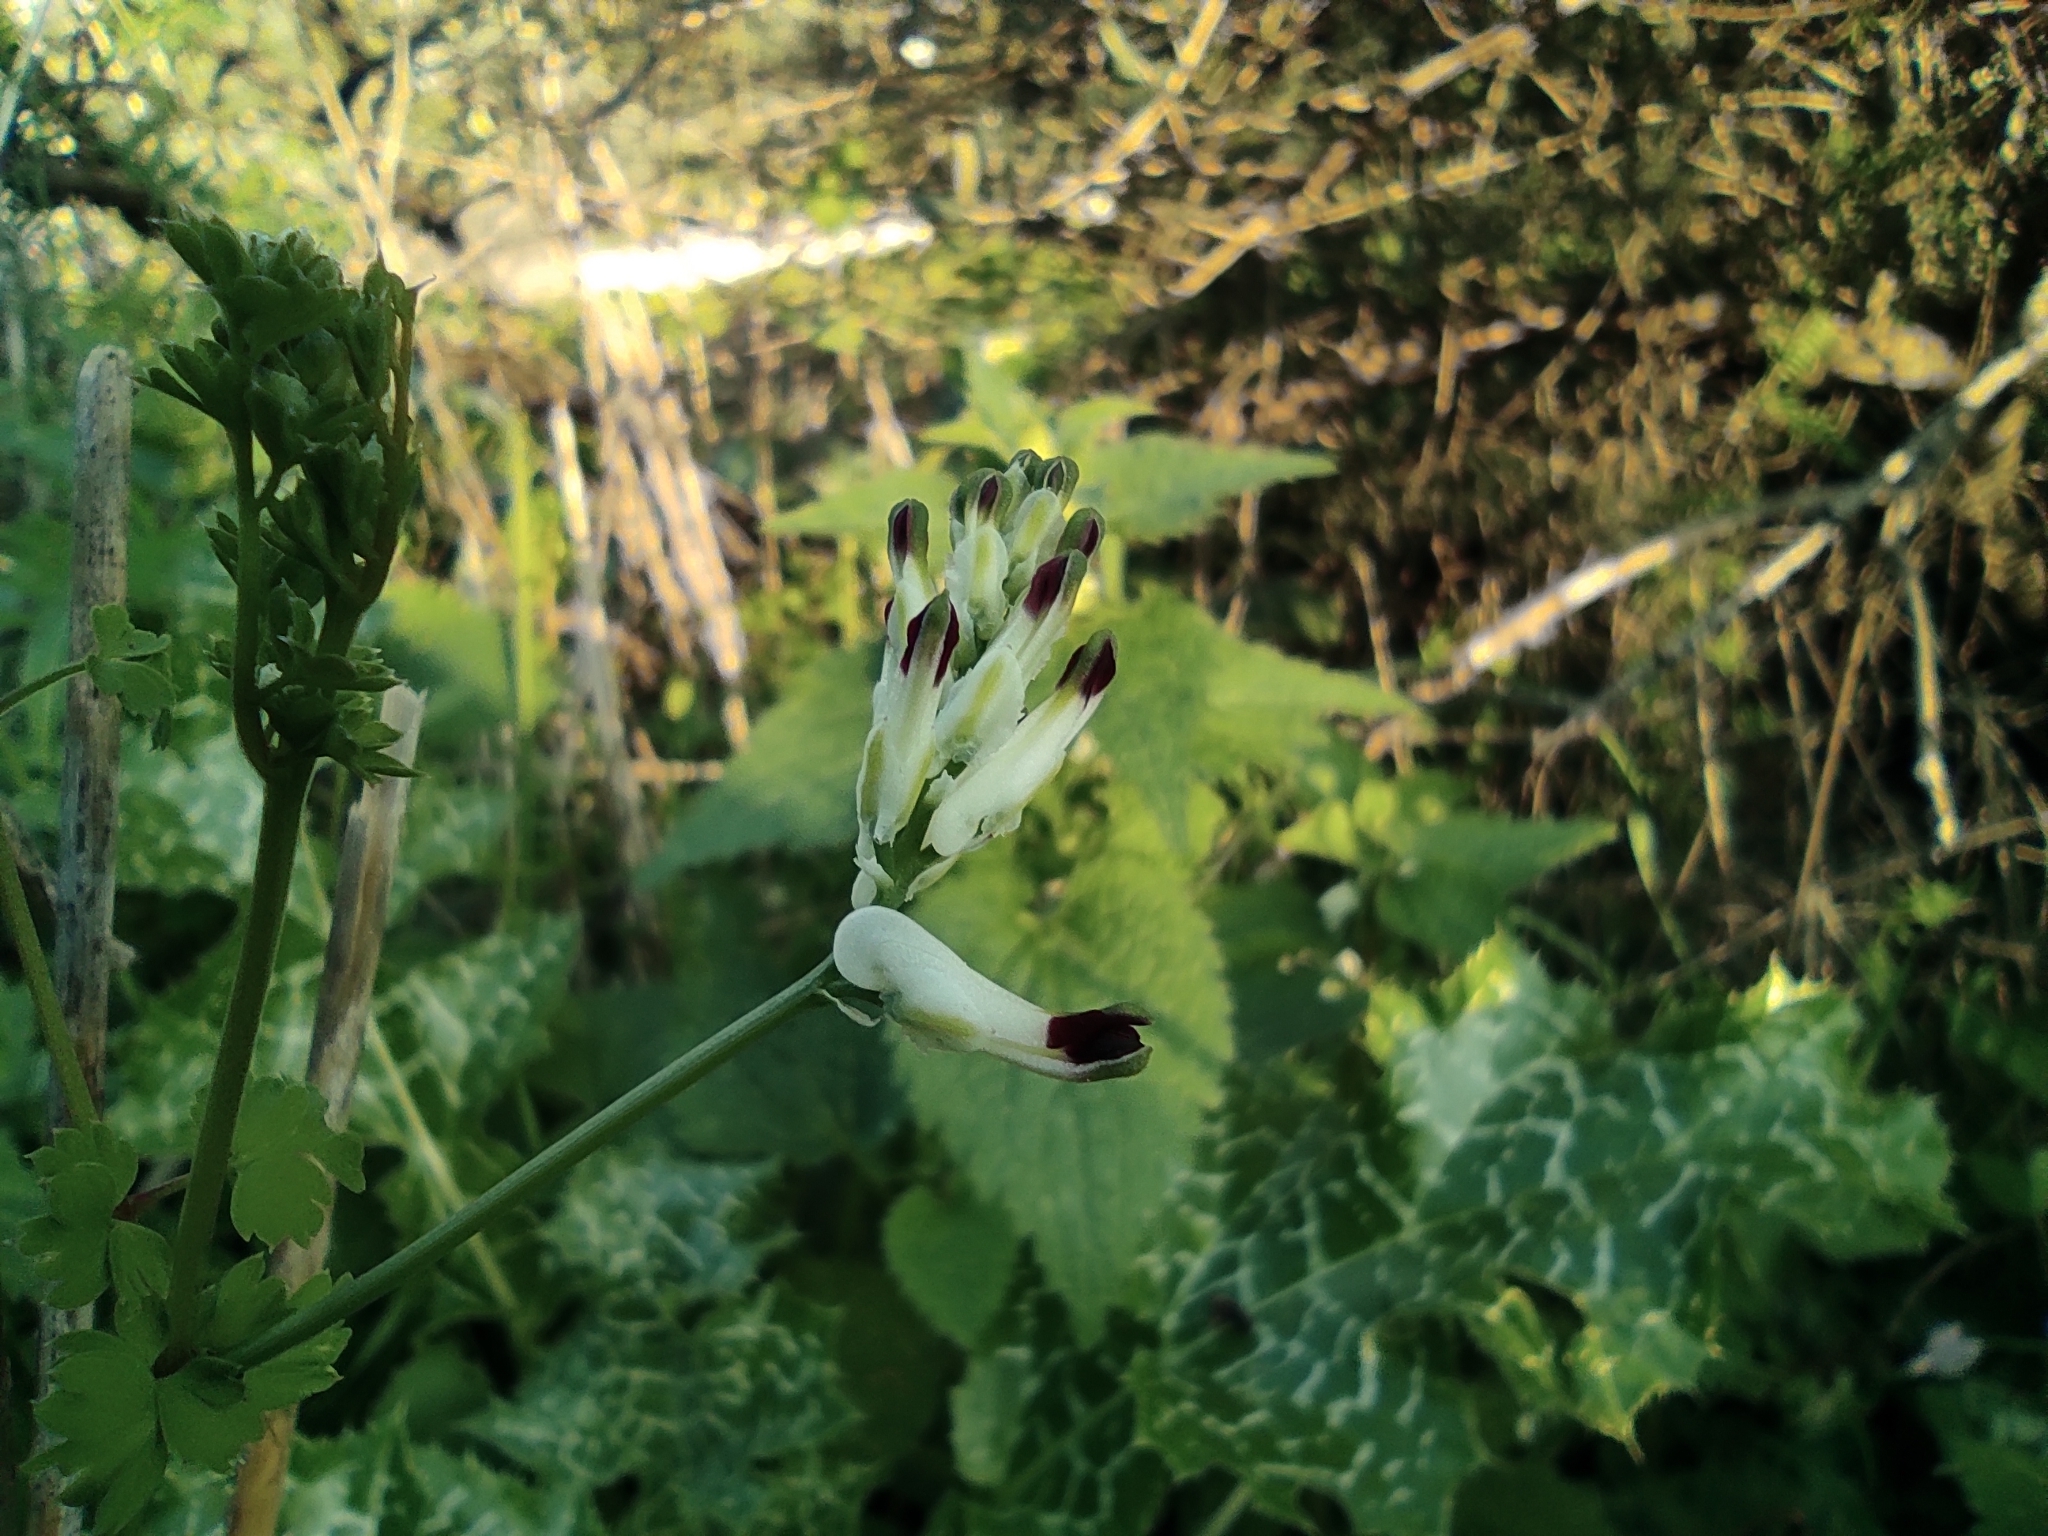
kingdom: Plantae
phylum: Tracheophyta
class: Magnoliopsida
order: Ranunculales
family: Papaveraceae
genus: Fumaria
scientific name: Fumaria capreolata
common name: White ramping-fumitory
